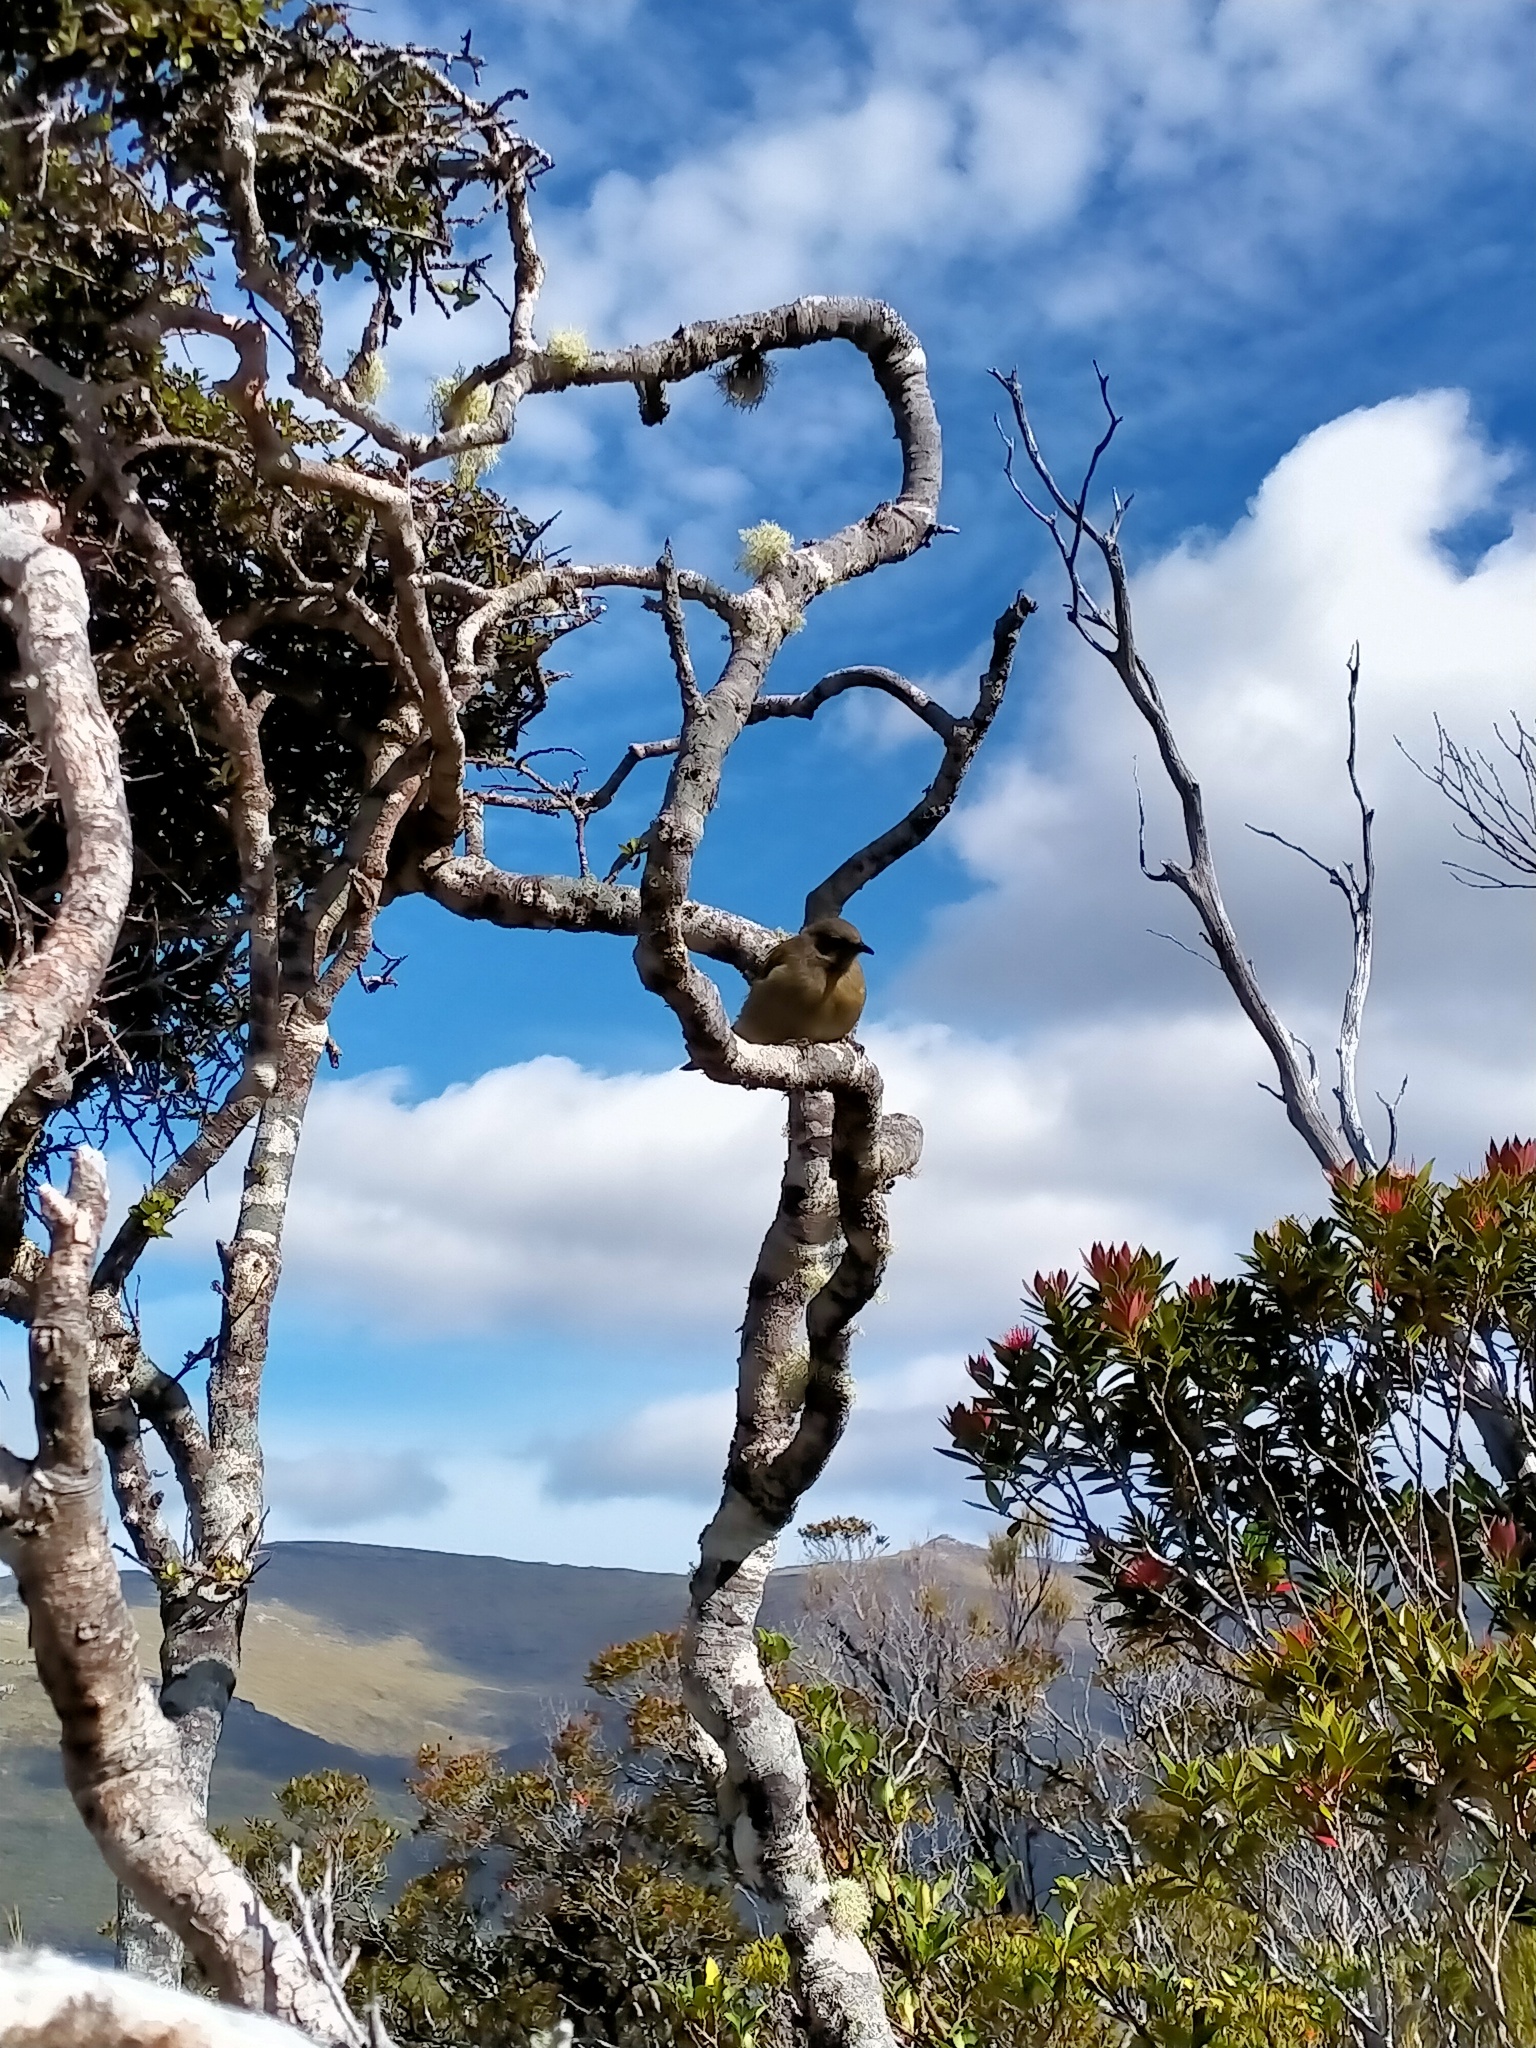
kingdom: Animalia
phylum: Chordata
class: Aves
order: Passeriformes
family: Meliphagidae
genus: Anthornis
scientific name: Anthornis melanura
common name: New zealand bellbird
